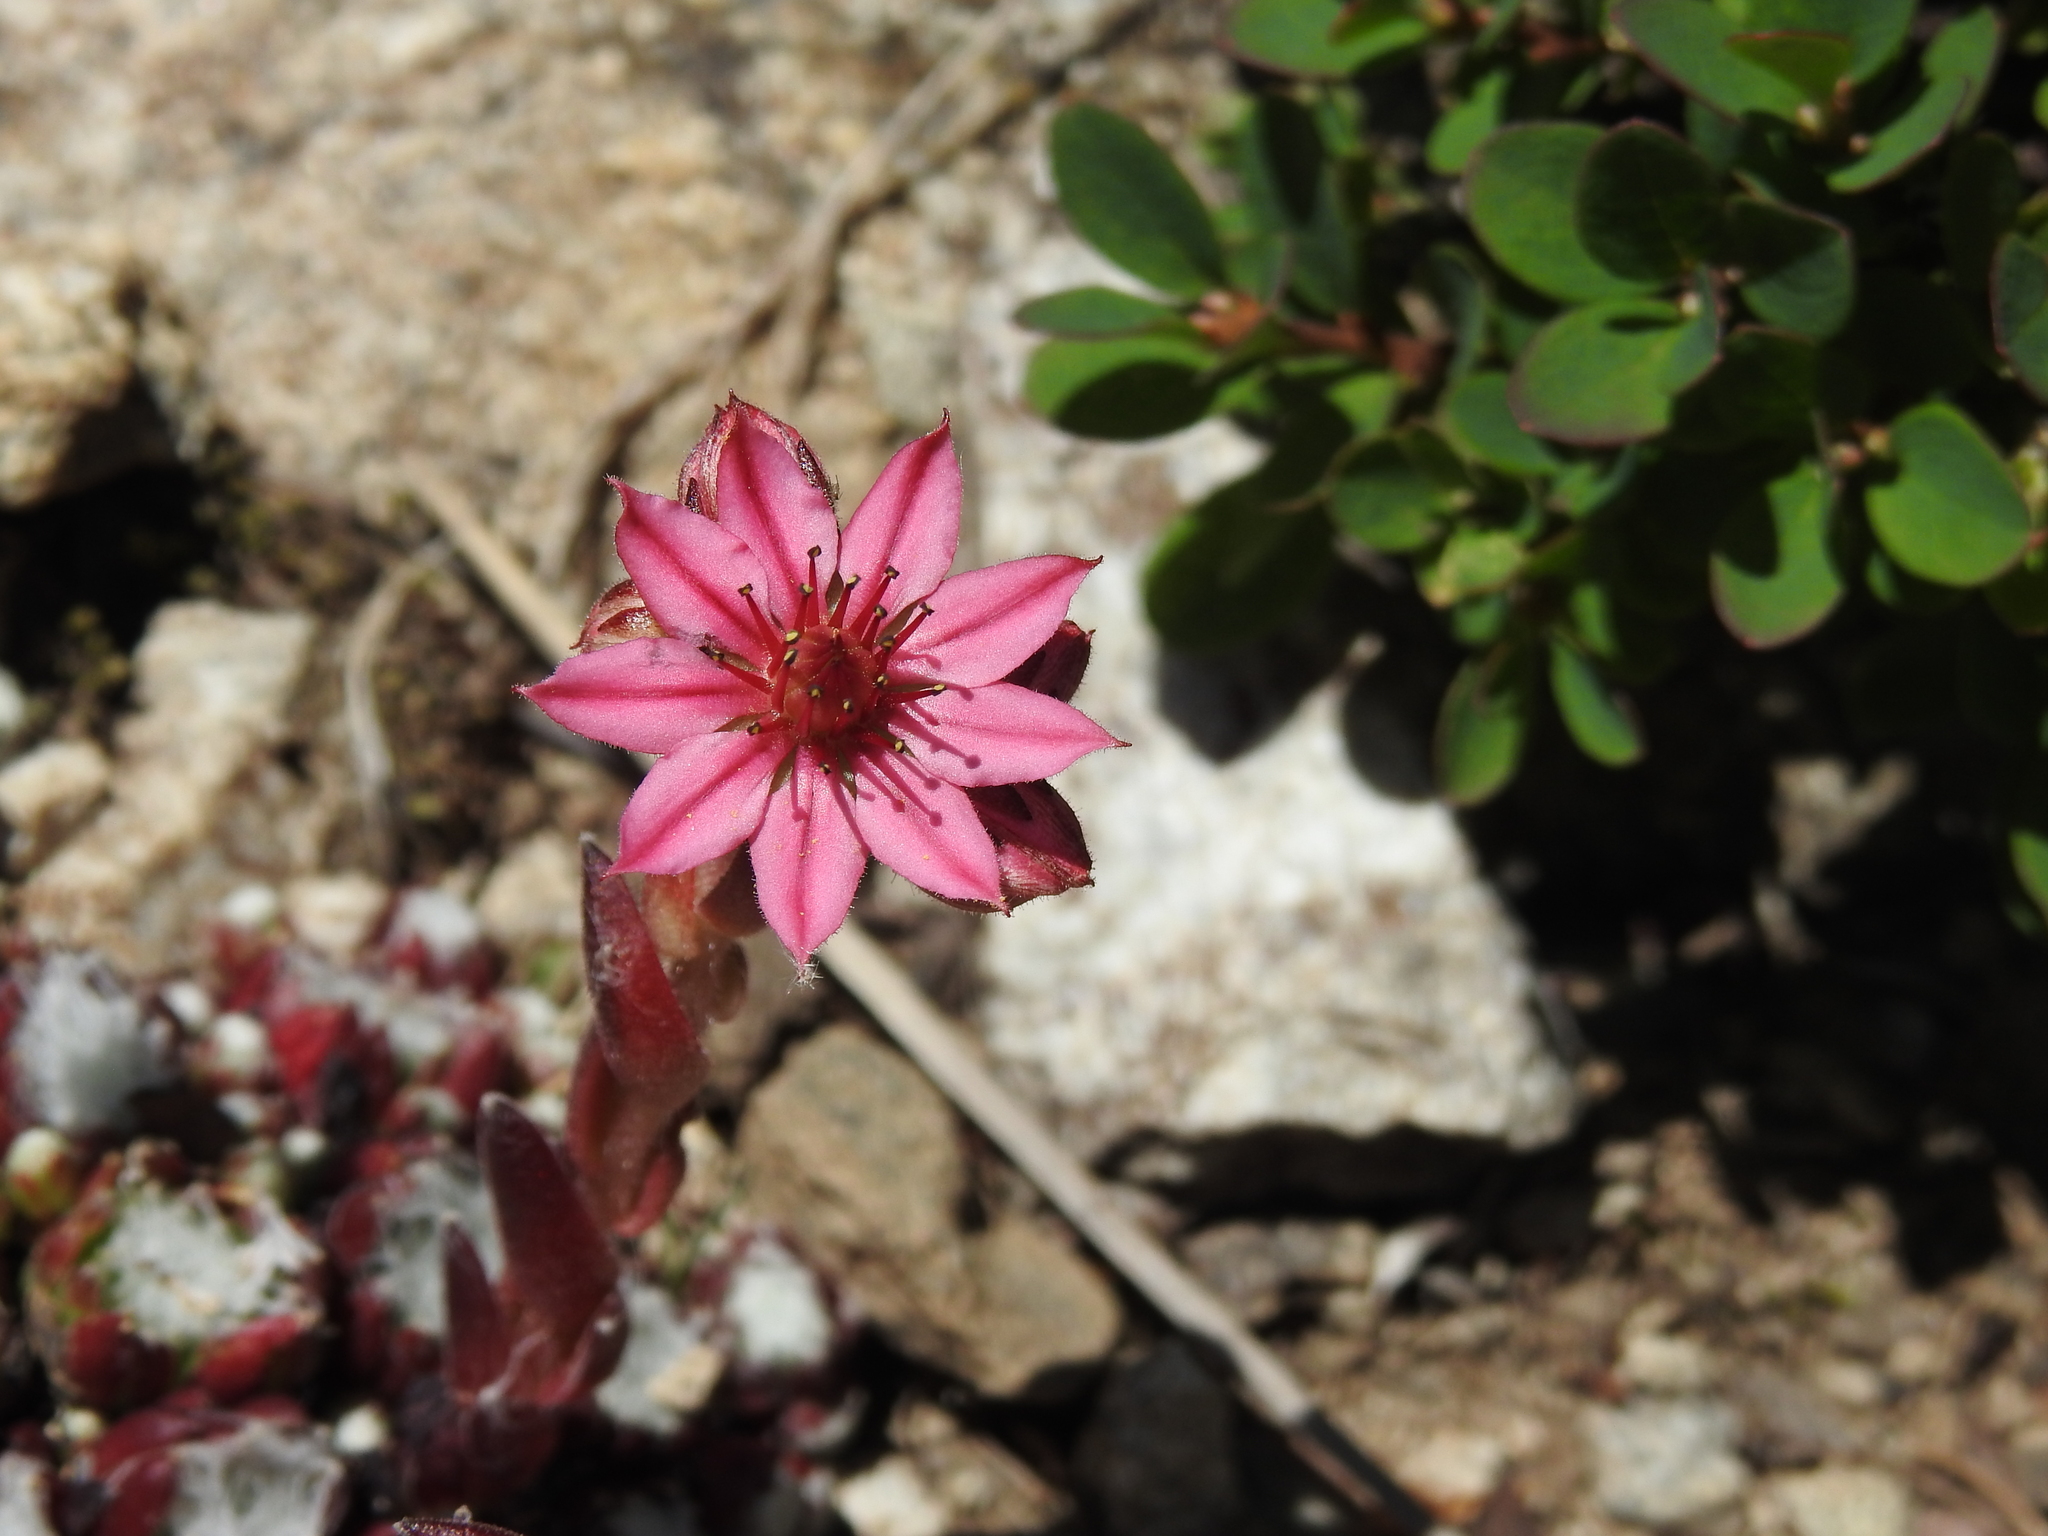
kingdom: Plantae
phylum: Tracheophyta
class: Magnoliopsida
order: Saxifragales
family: Crassulaceae
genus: Sempervivum
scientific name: Sempervivum arachnoideum
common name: Cobweb house-leek
